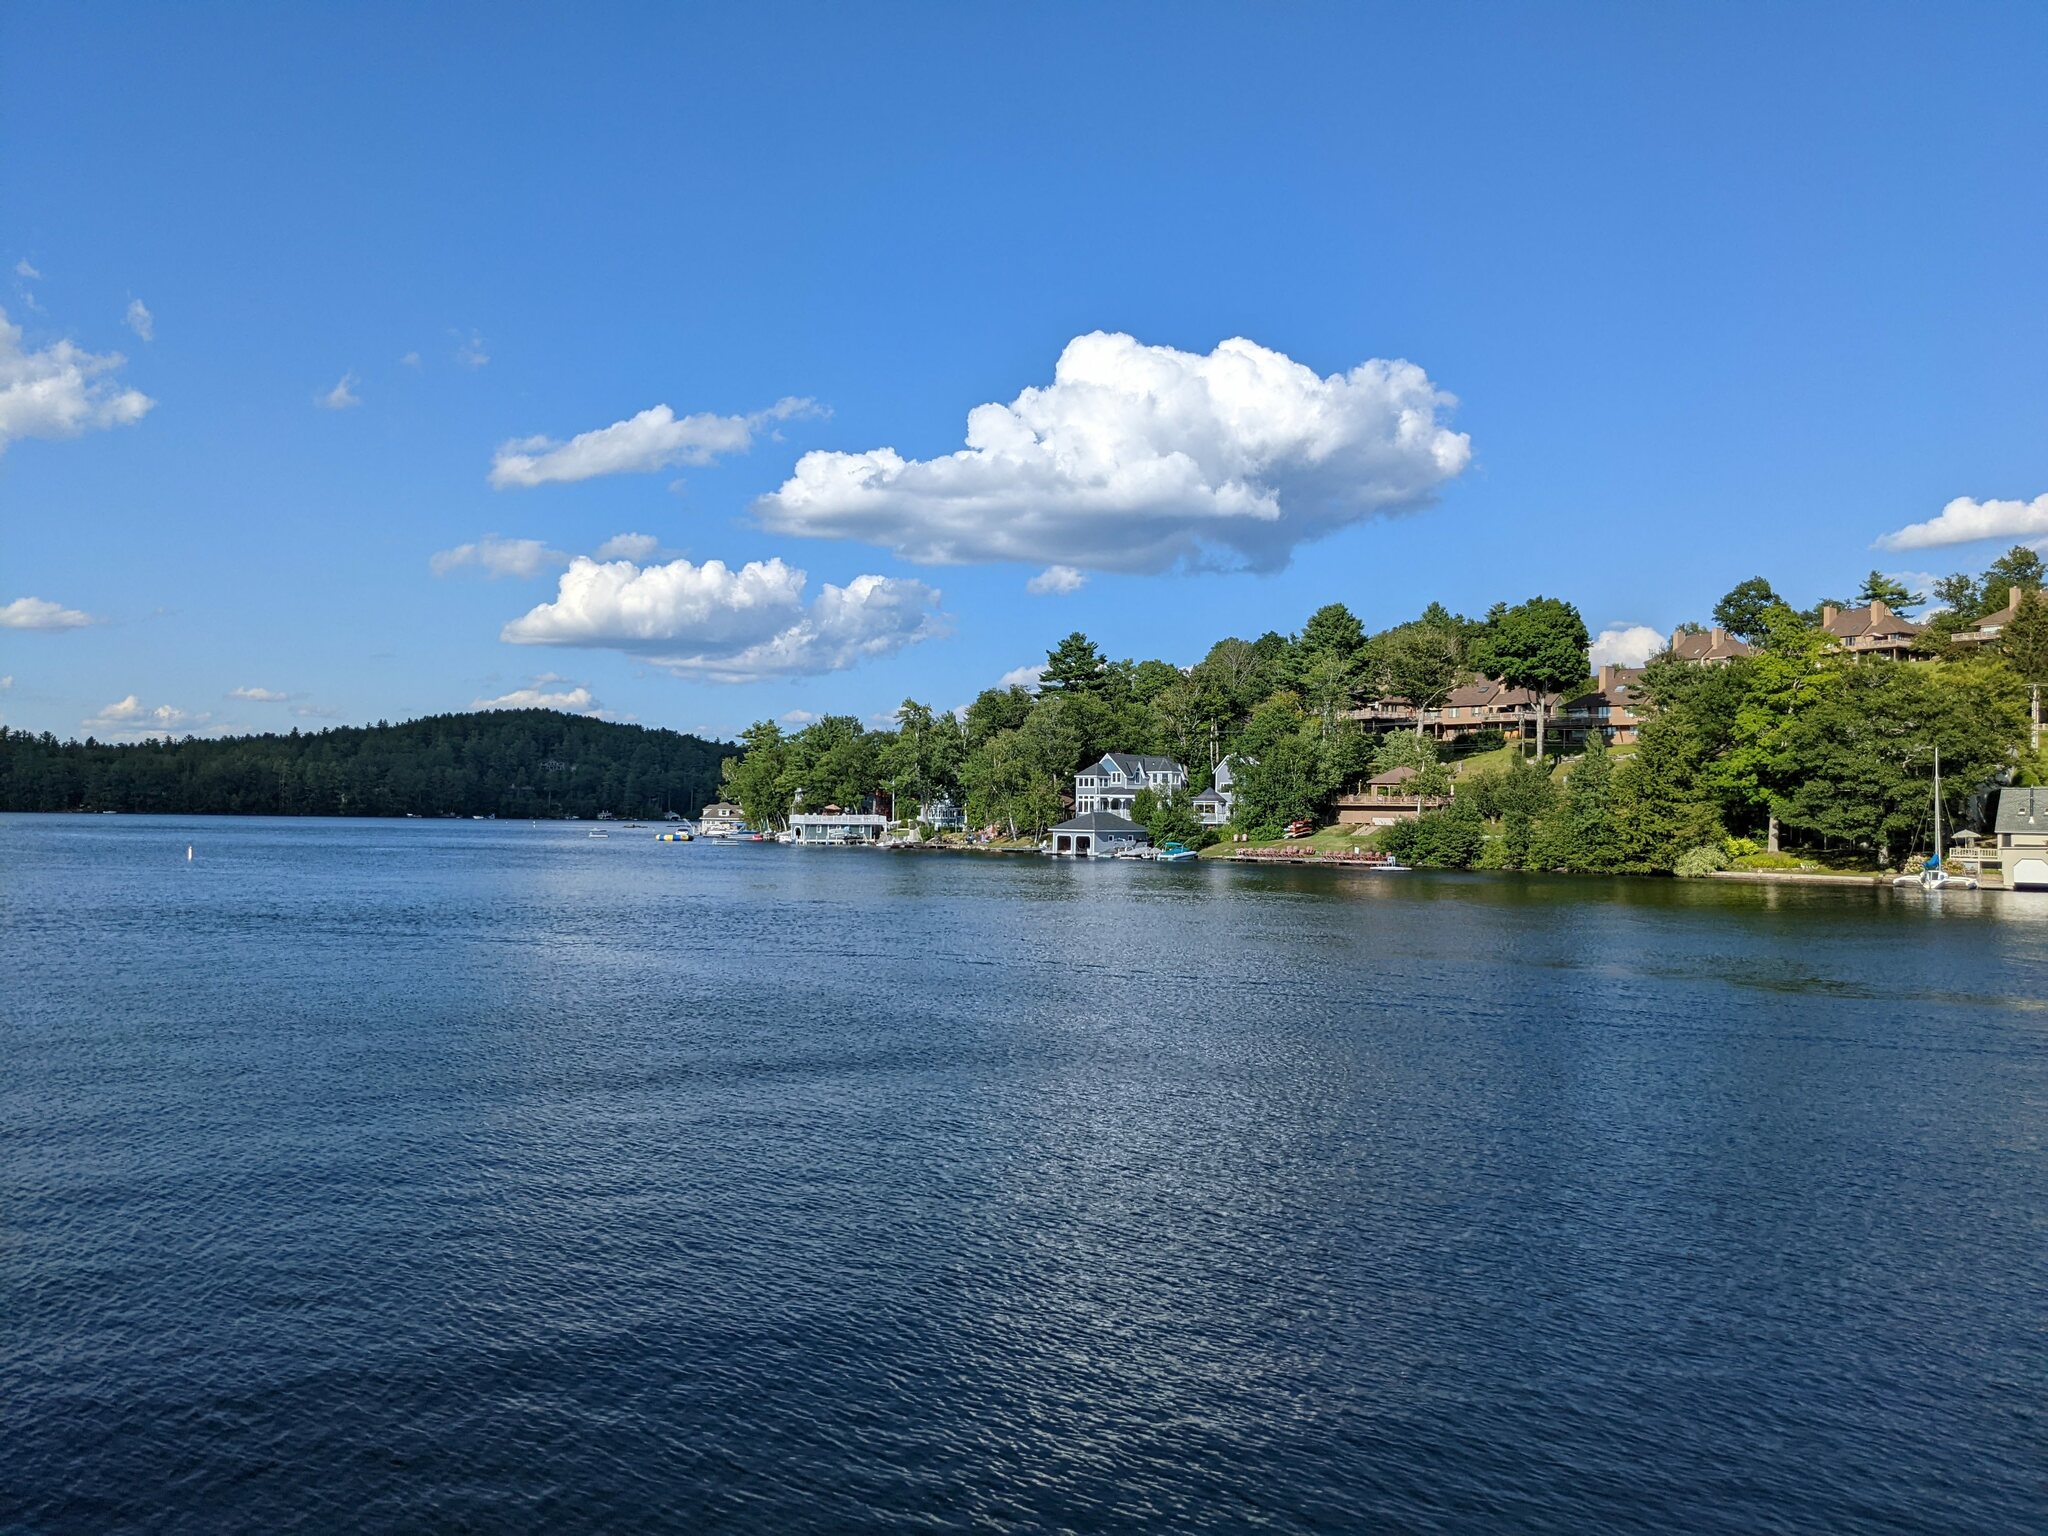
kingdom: Plantae
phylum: Tracheophyta
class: Pinopsida
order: Pinales
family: Pinaceae
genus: Pinus
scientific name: Pinus strobus
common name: Weymouth pine
